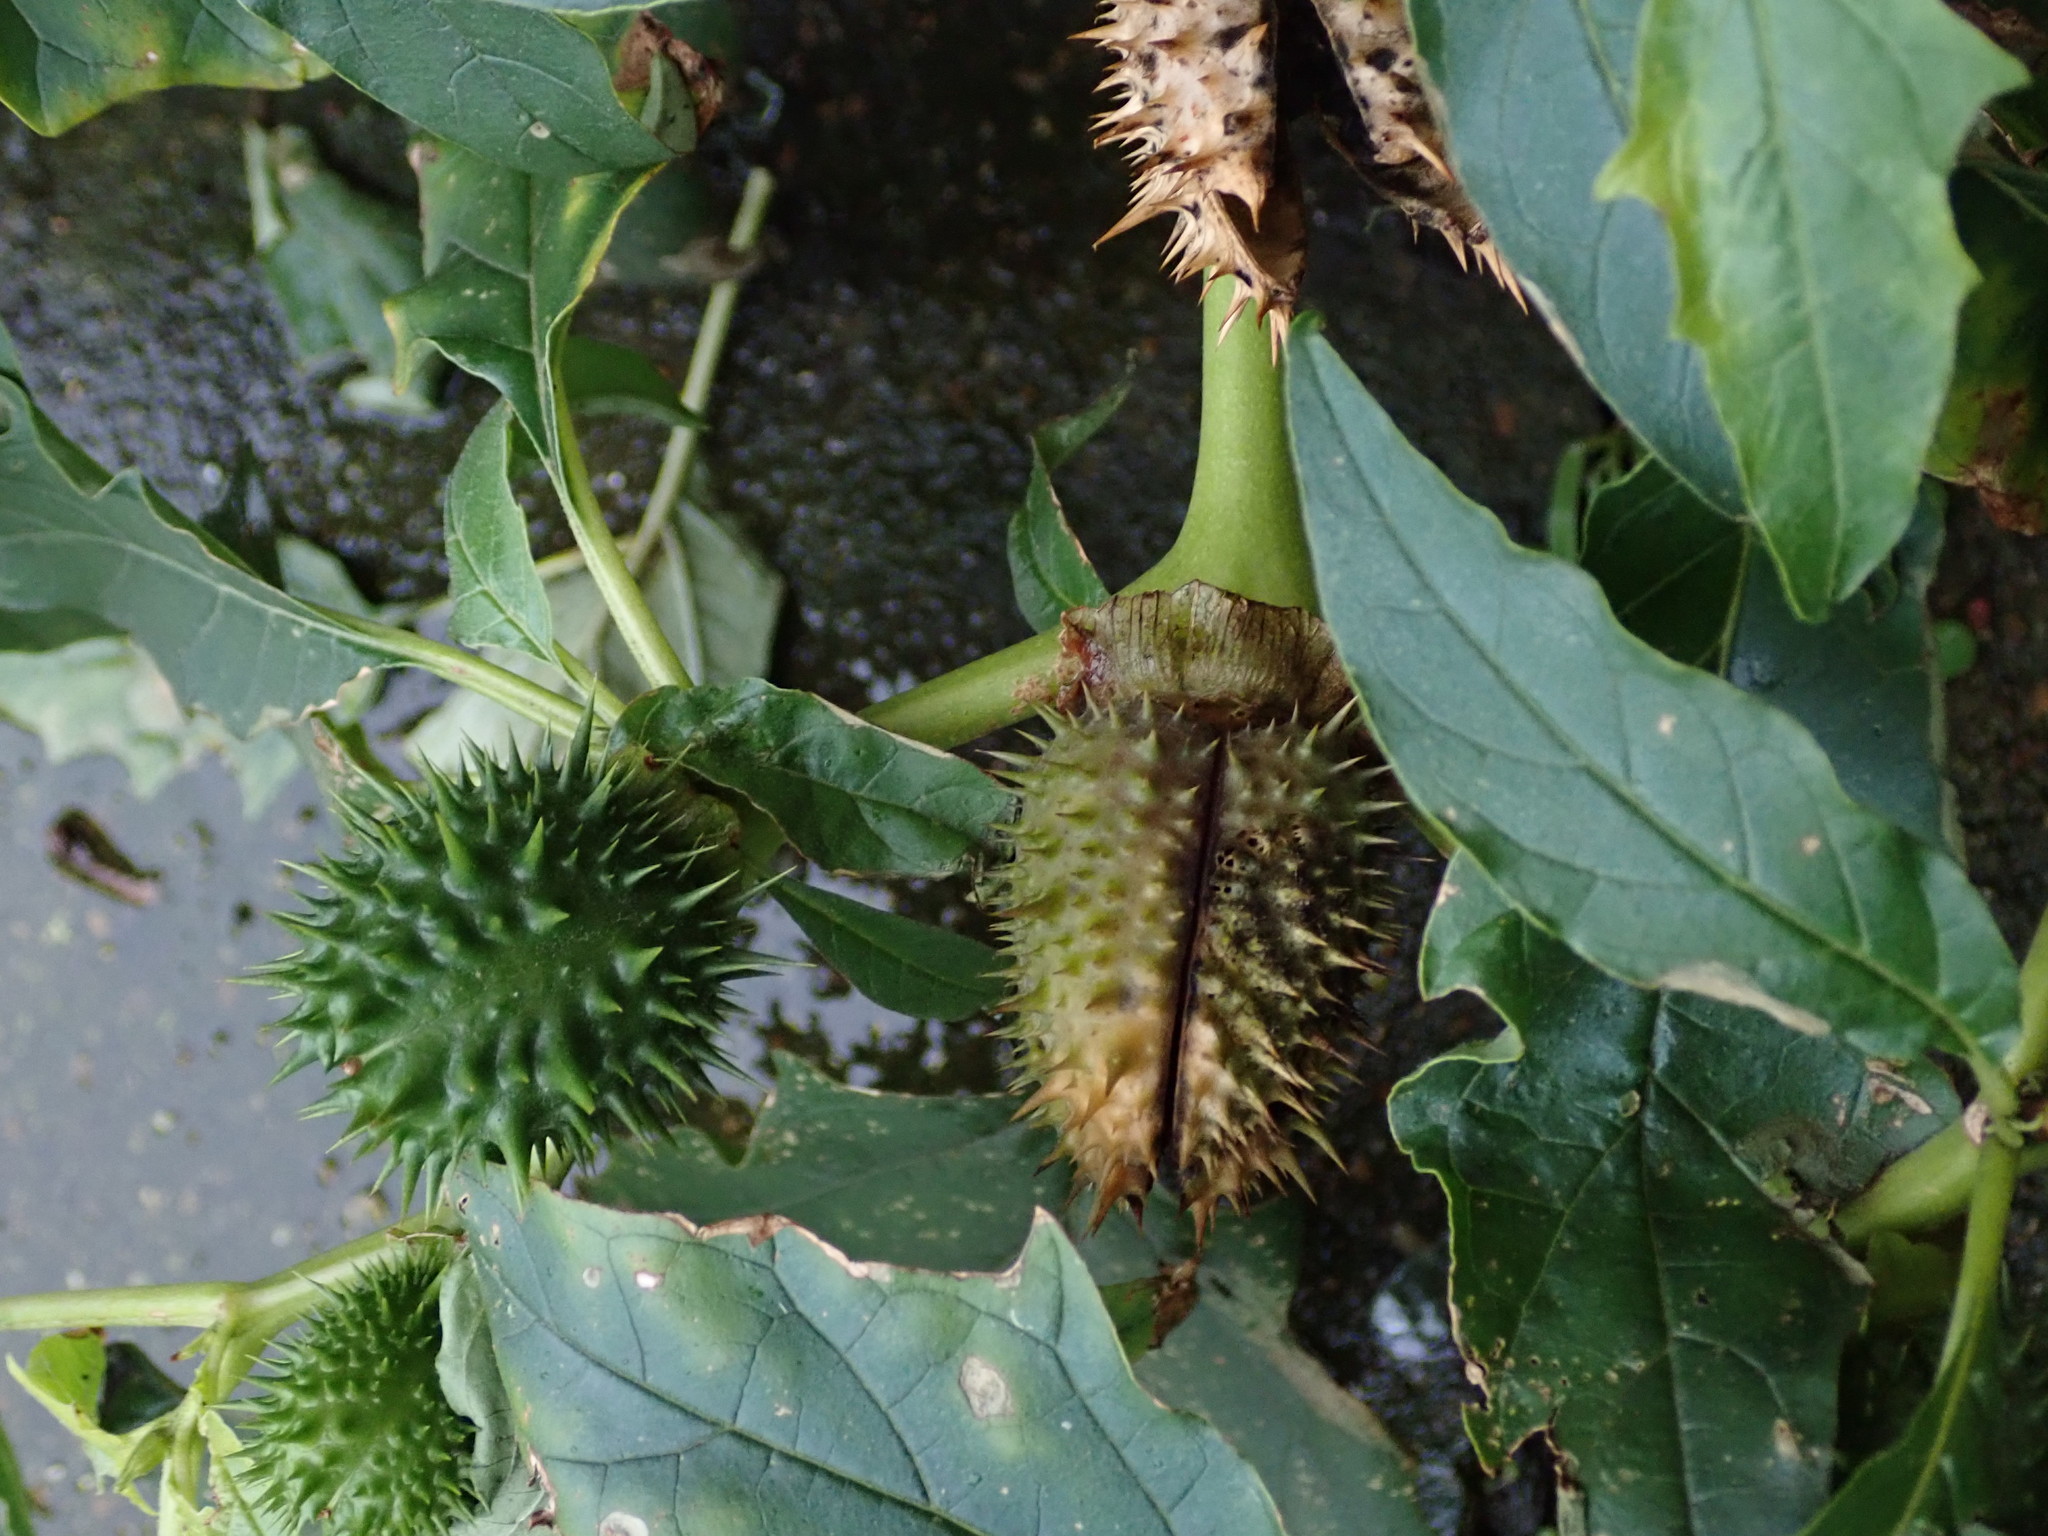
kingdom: Plantae
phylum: Tracheophyta
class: Magnoliopsida
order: Solanales
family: Solanaceae
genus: Datura
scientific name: Datura stramonium
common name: Thorn-apple
